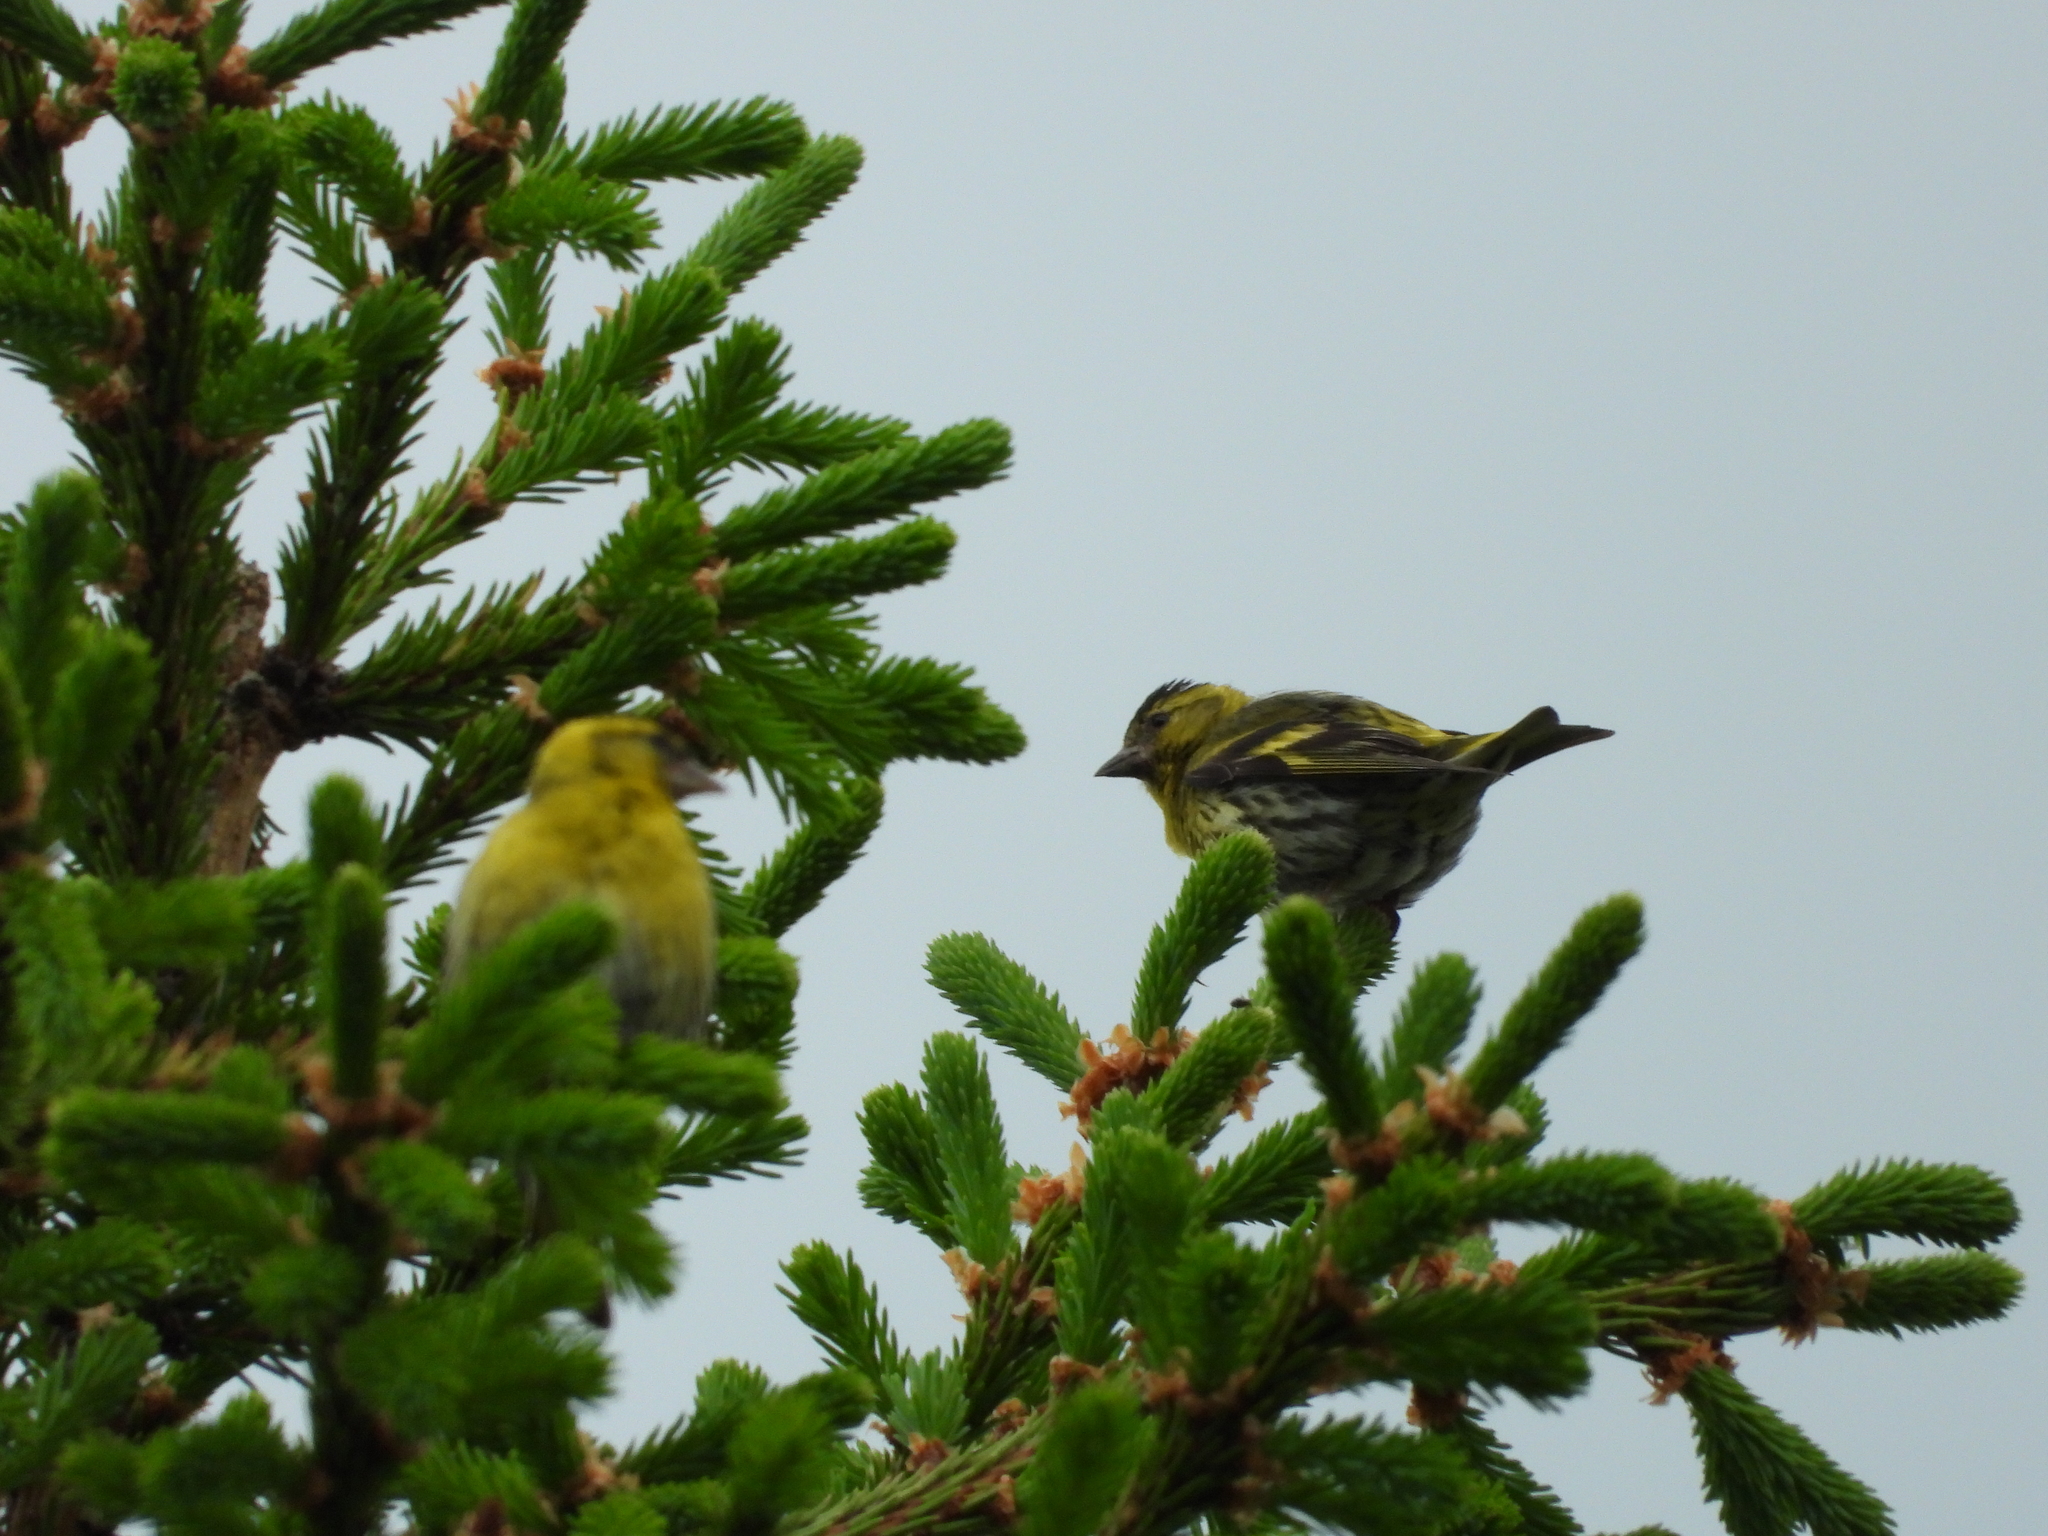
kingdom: Animalia
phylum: Chordata
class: Aves
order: Passeriformes
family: Fringillidae
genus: Spinus
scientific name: Spinus spinus
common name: Eurasian siskin
